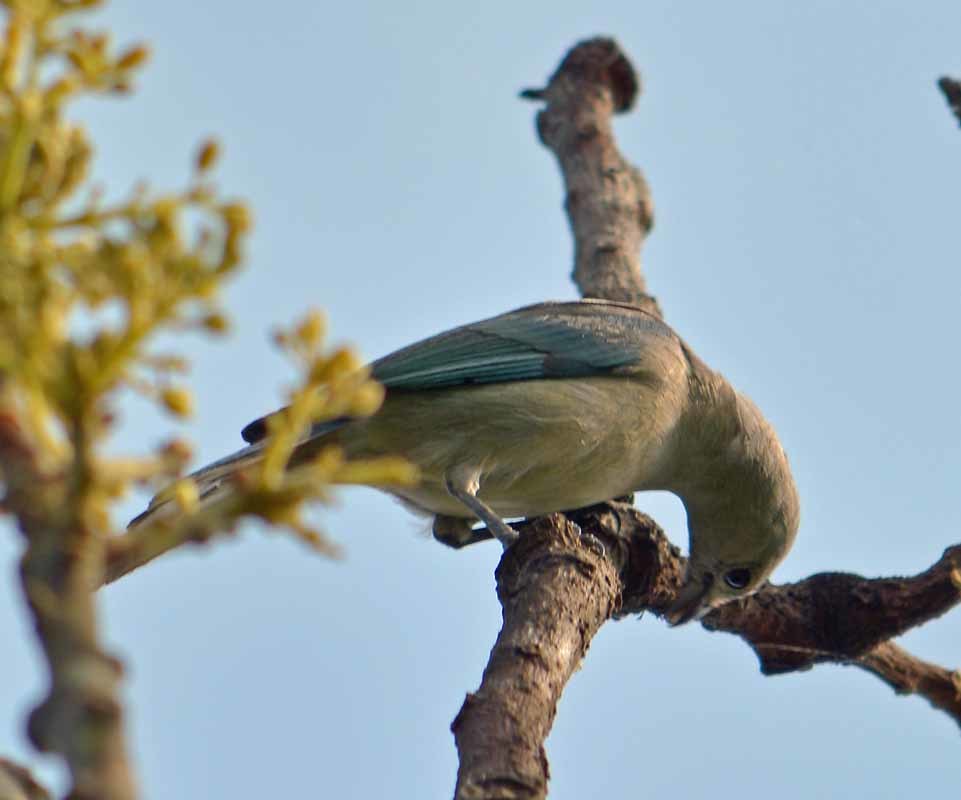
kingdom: Animalia
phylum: Chordata
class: Aves
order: Passeriformes
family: Thraupidae
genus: Thraupis
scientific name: Thraupis episcopus
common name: Blue-grey tanager
